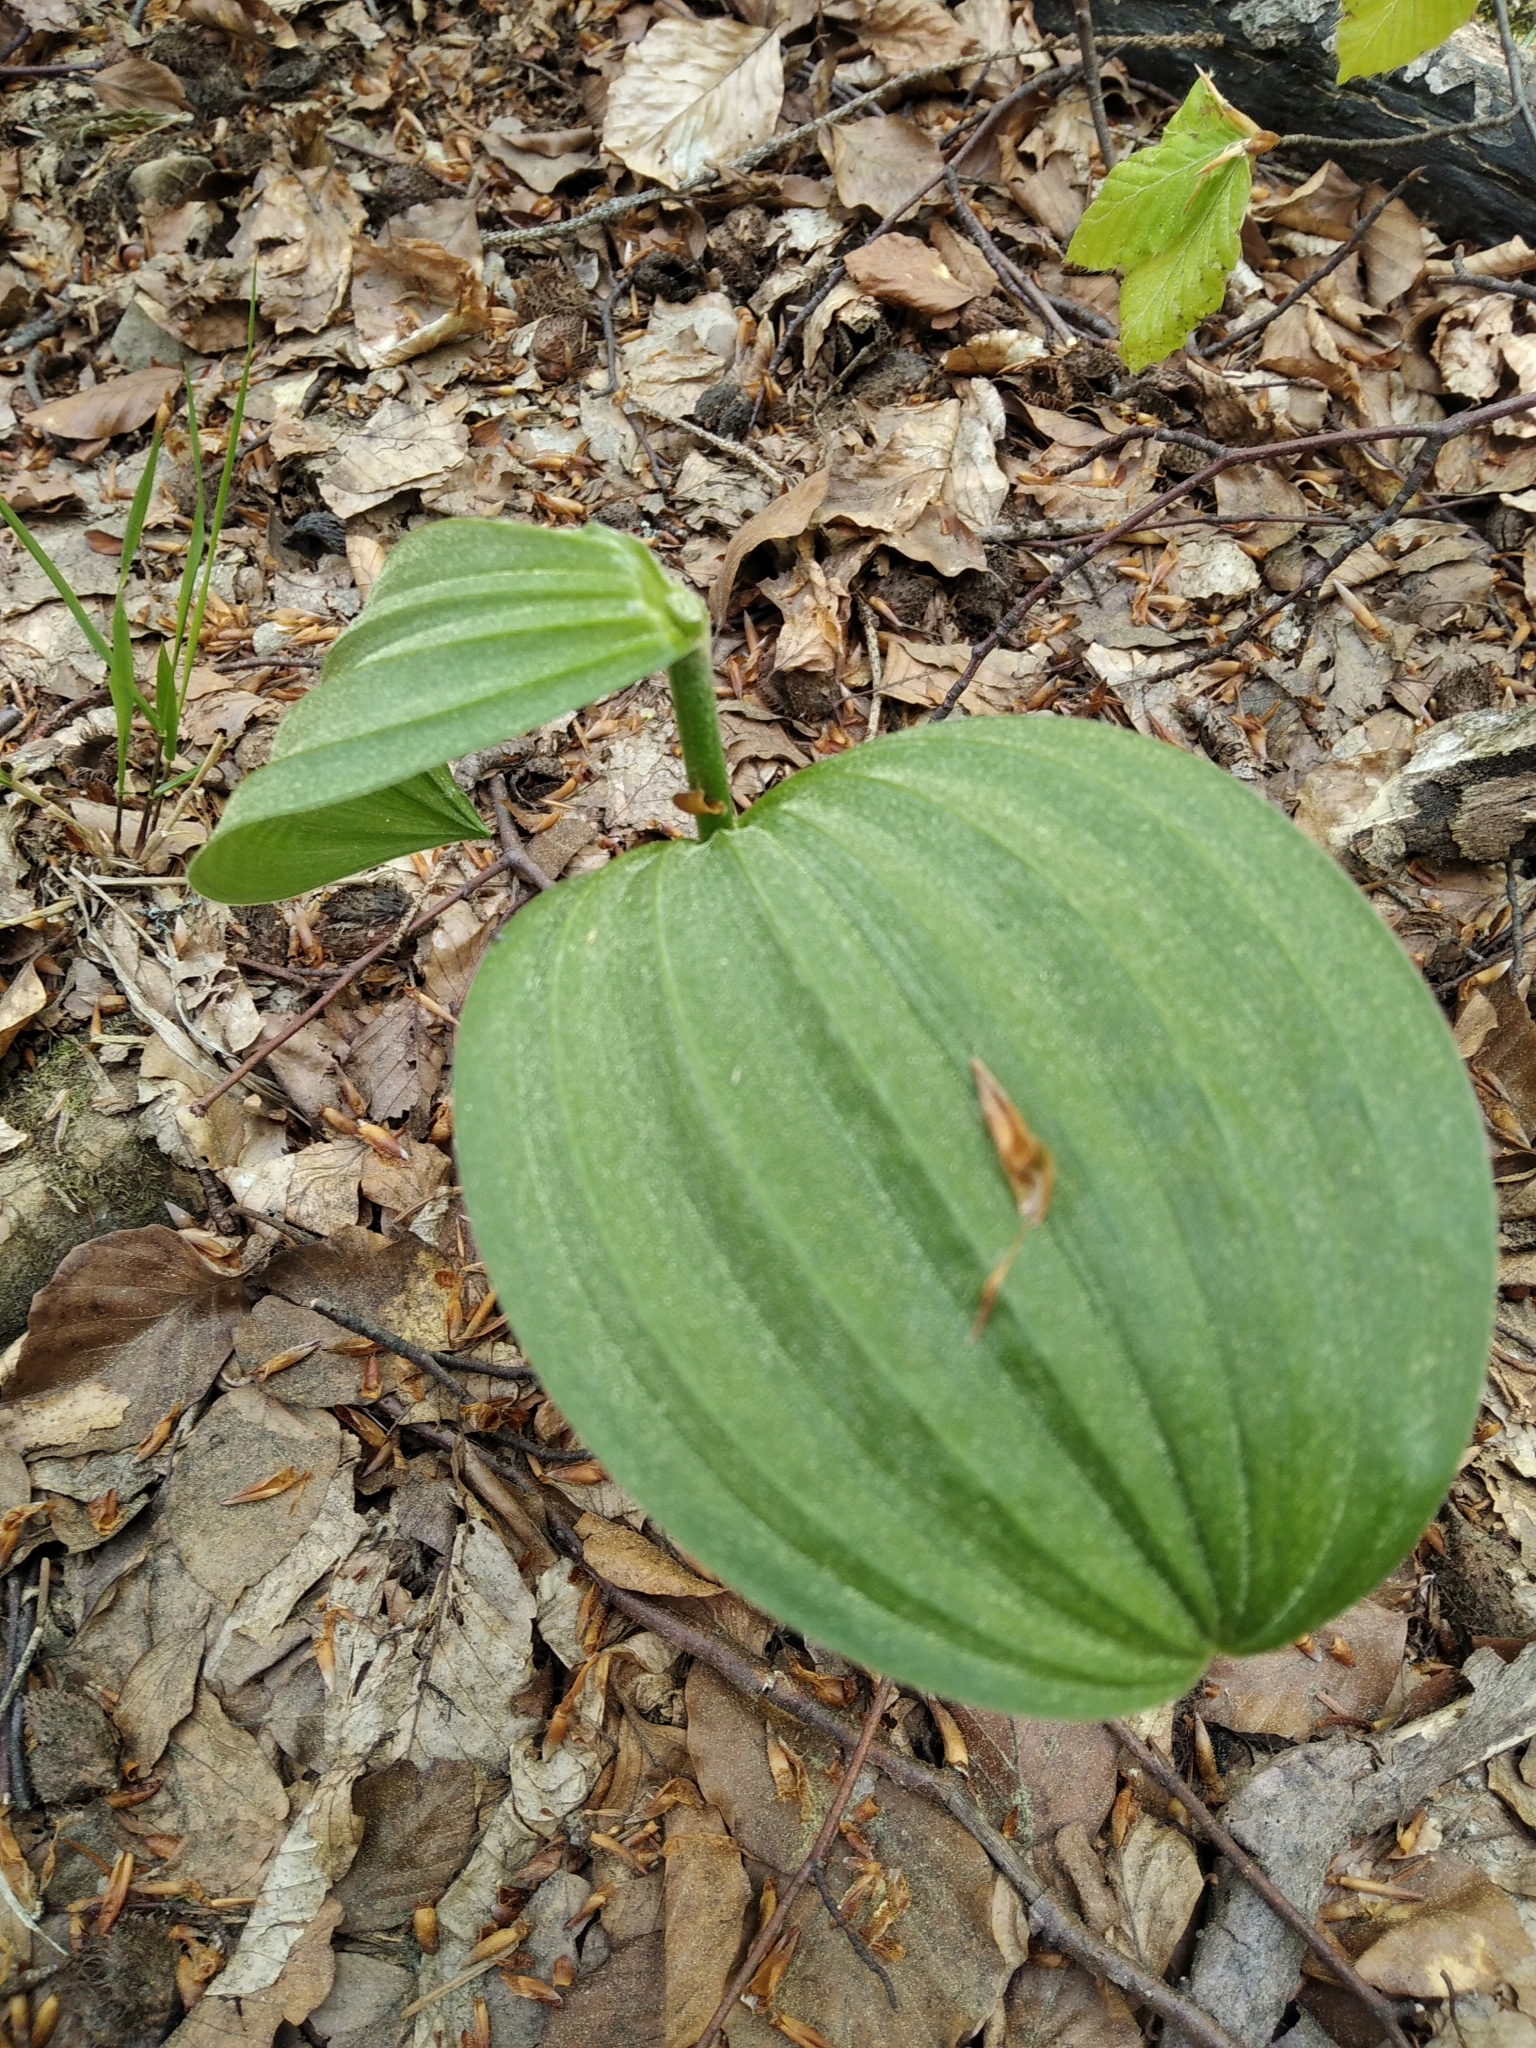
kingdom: Plantae
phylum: Tracheophyta
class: Liliopsida
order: Liliales
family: Melanthiaceae
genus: Veratrum
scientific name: Veratrum lobelianum
